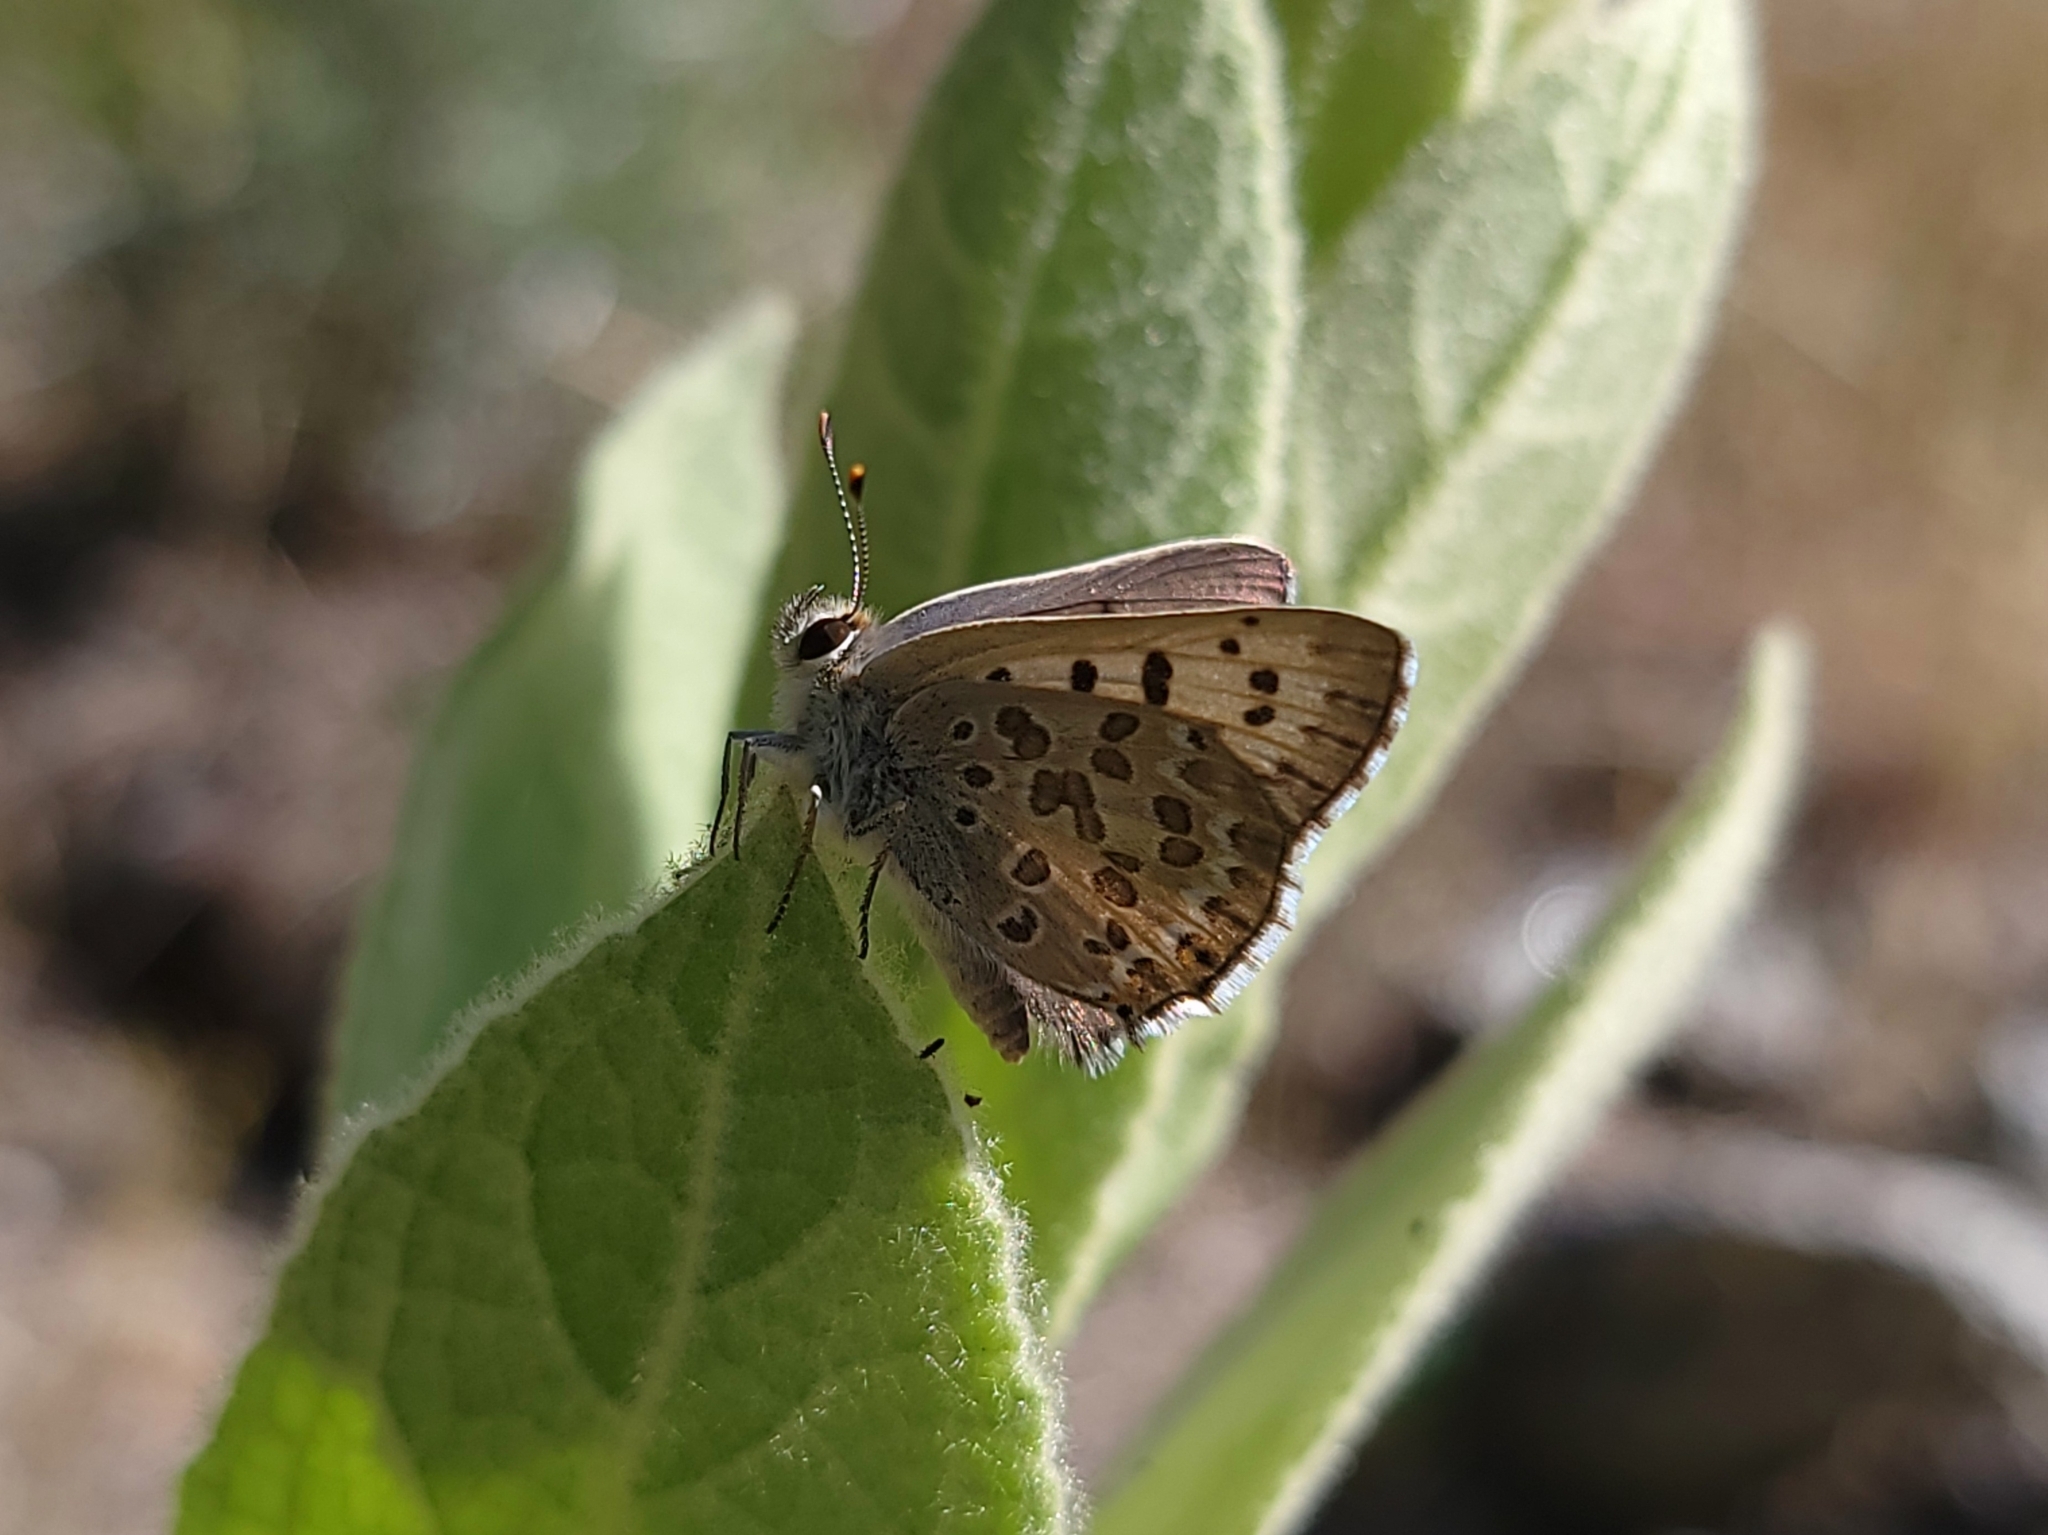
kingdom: Animalia
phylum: Arthropoda
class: Insecta
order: Lepidoptera
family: Lycaenidae
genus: Tharsalea
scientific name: Tharsalea editha
